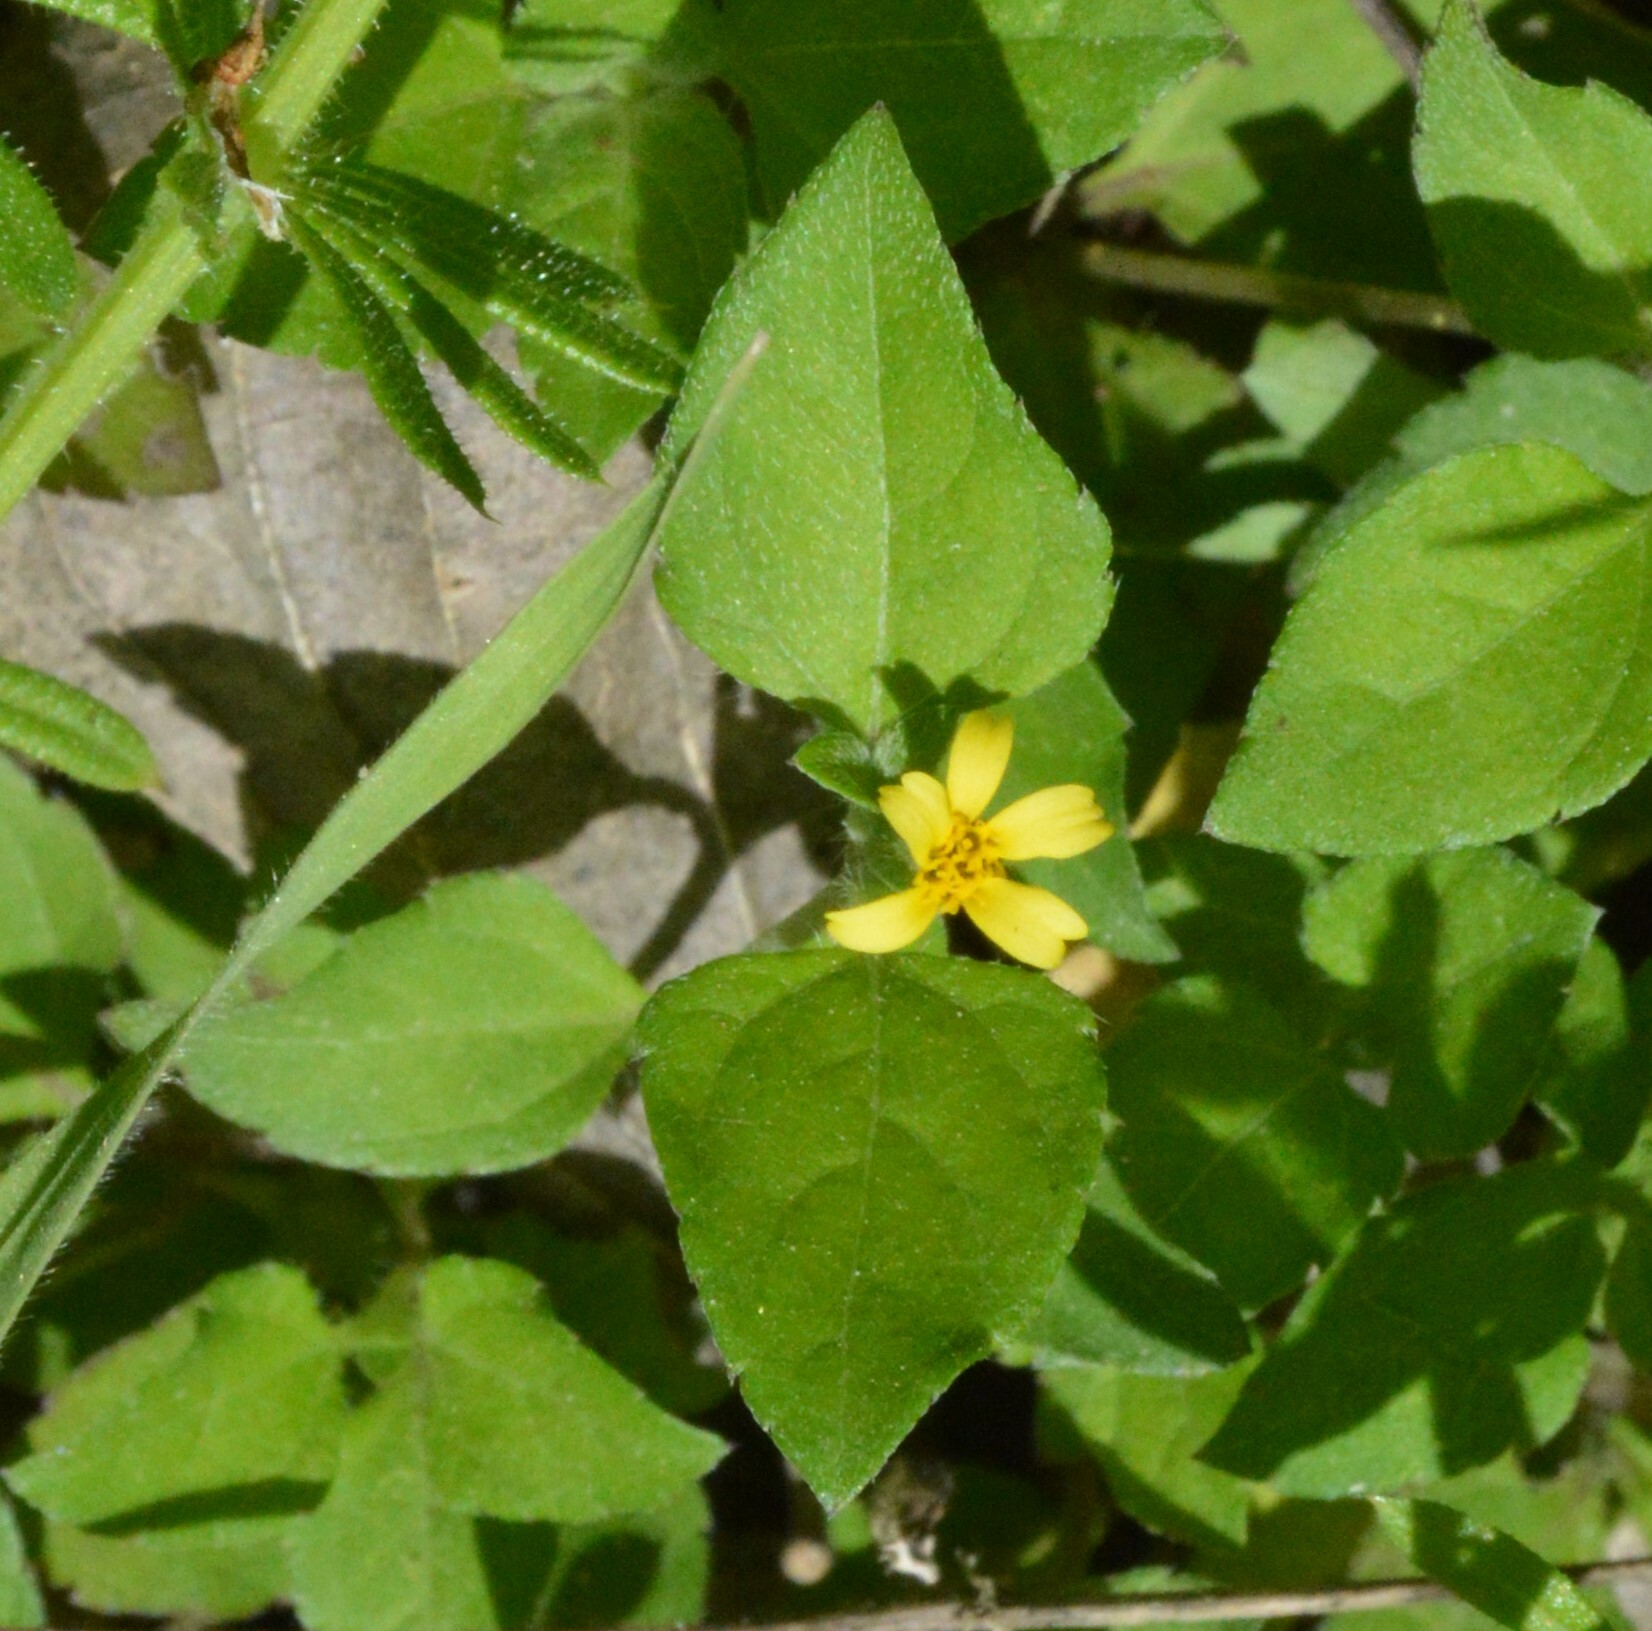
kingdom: Plantae
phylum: Tracheophyta
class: Magnoliopsida
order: Asterales
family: Asteraceae
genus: Calyptocarpus
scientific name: Calyptocarpus vialis
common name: Straggler daisy
